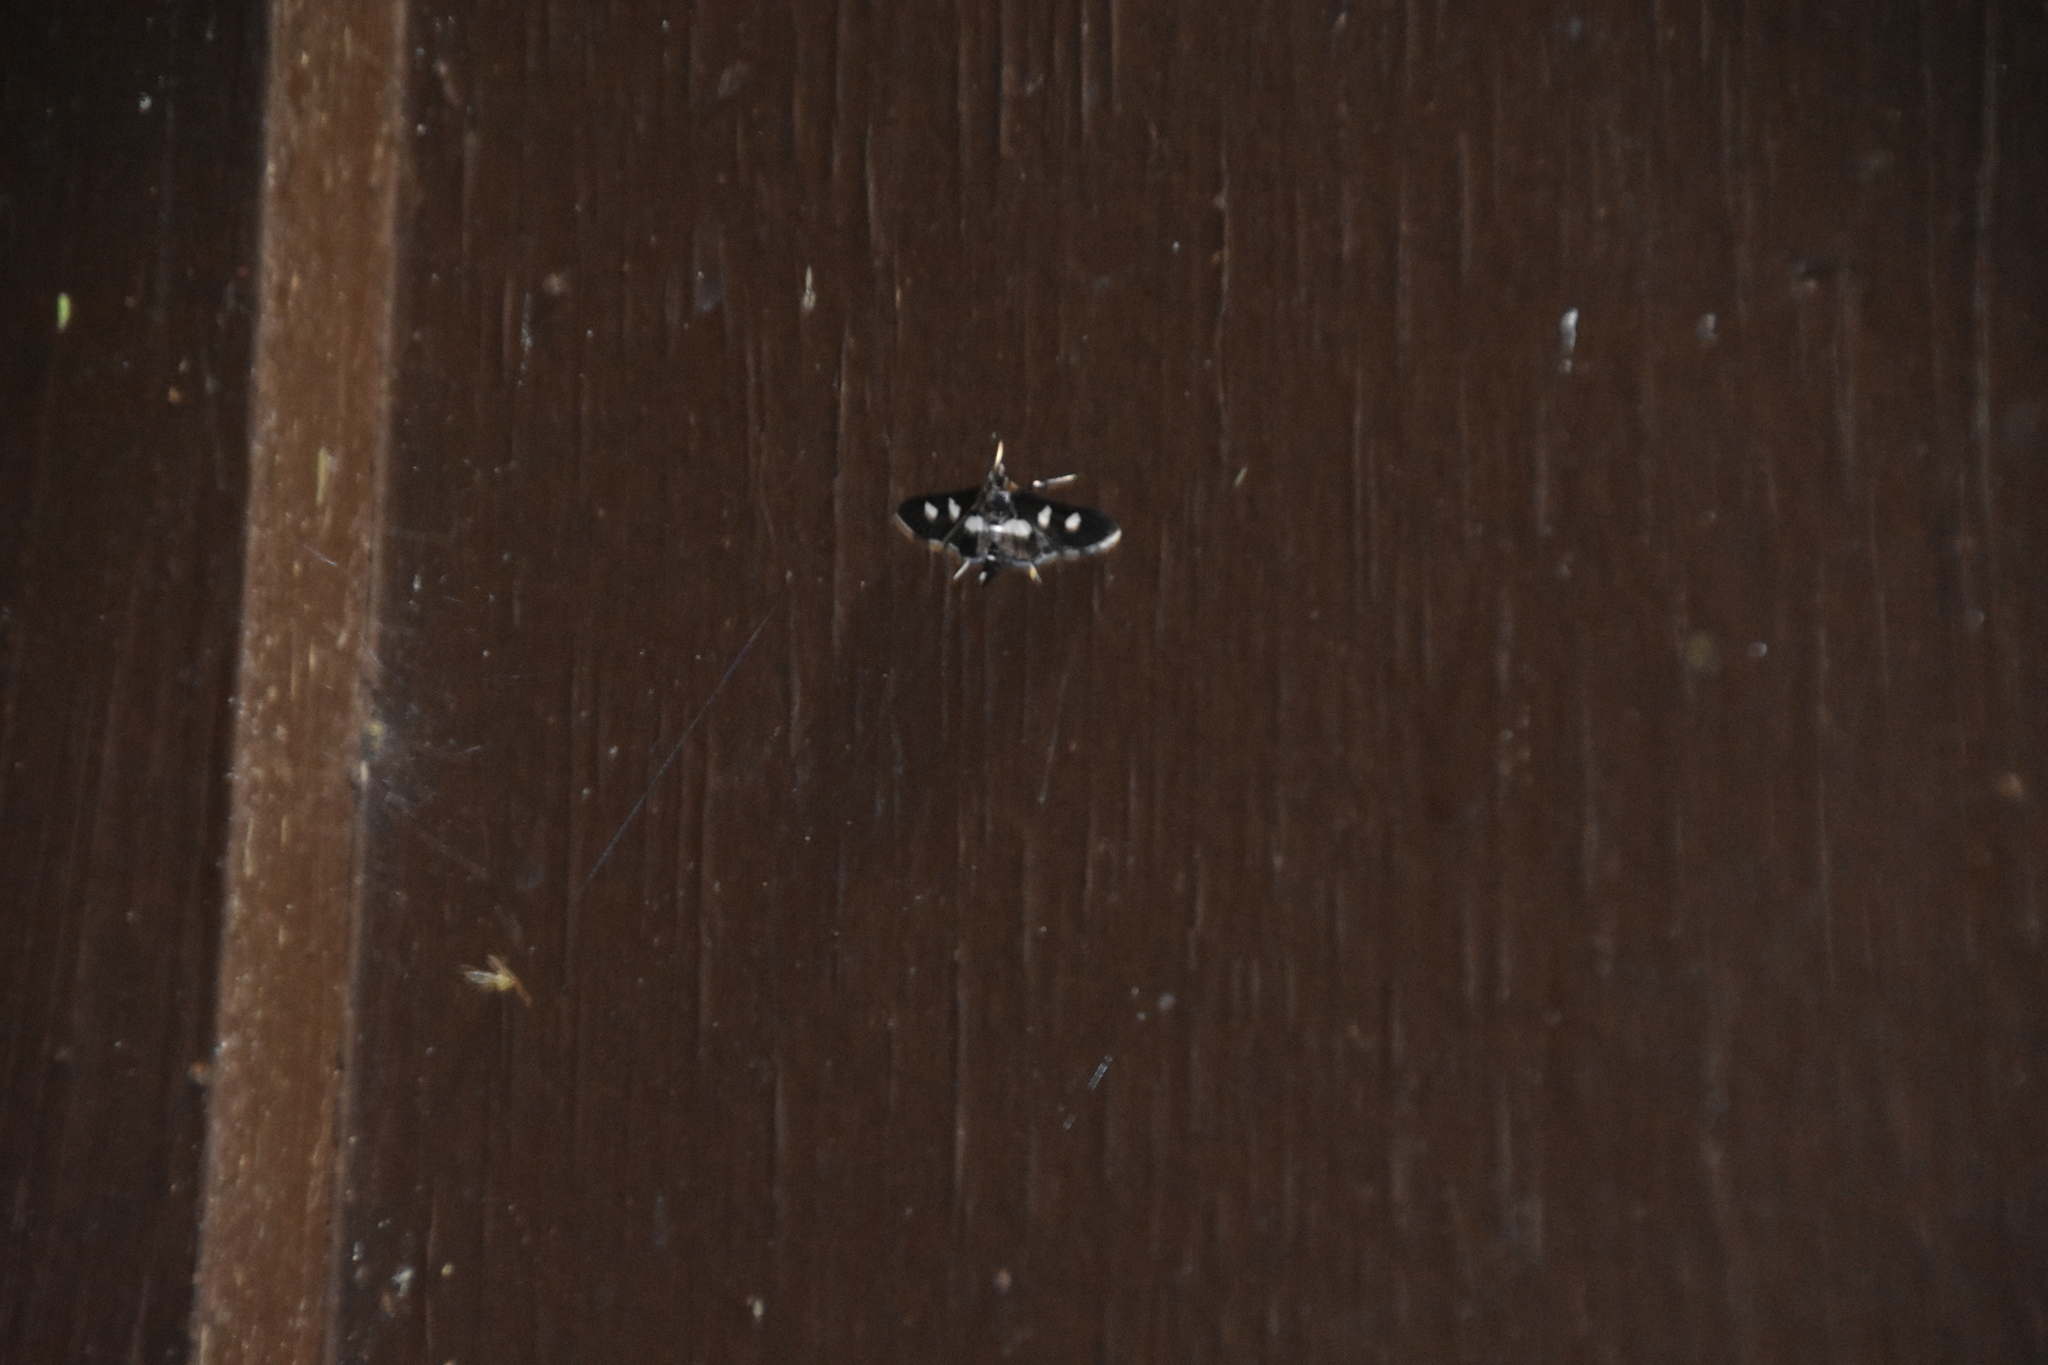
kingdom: Animalia
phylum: Arthropoda
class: Insecta
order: Lepidoptera
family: Crambidae
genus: Desmia
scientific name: Desmia
